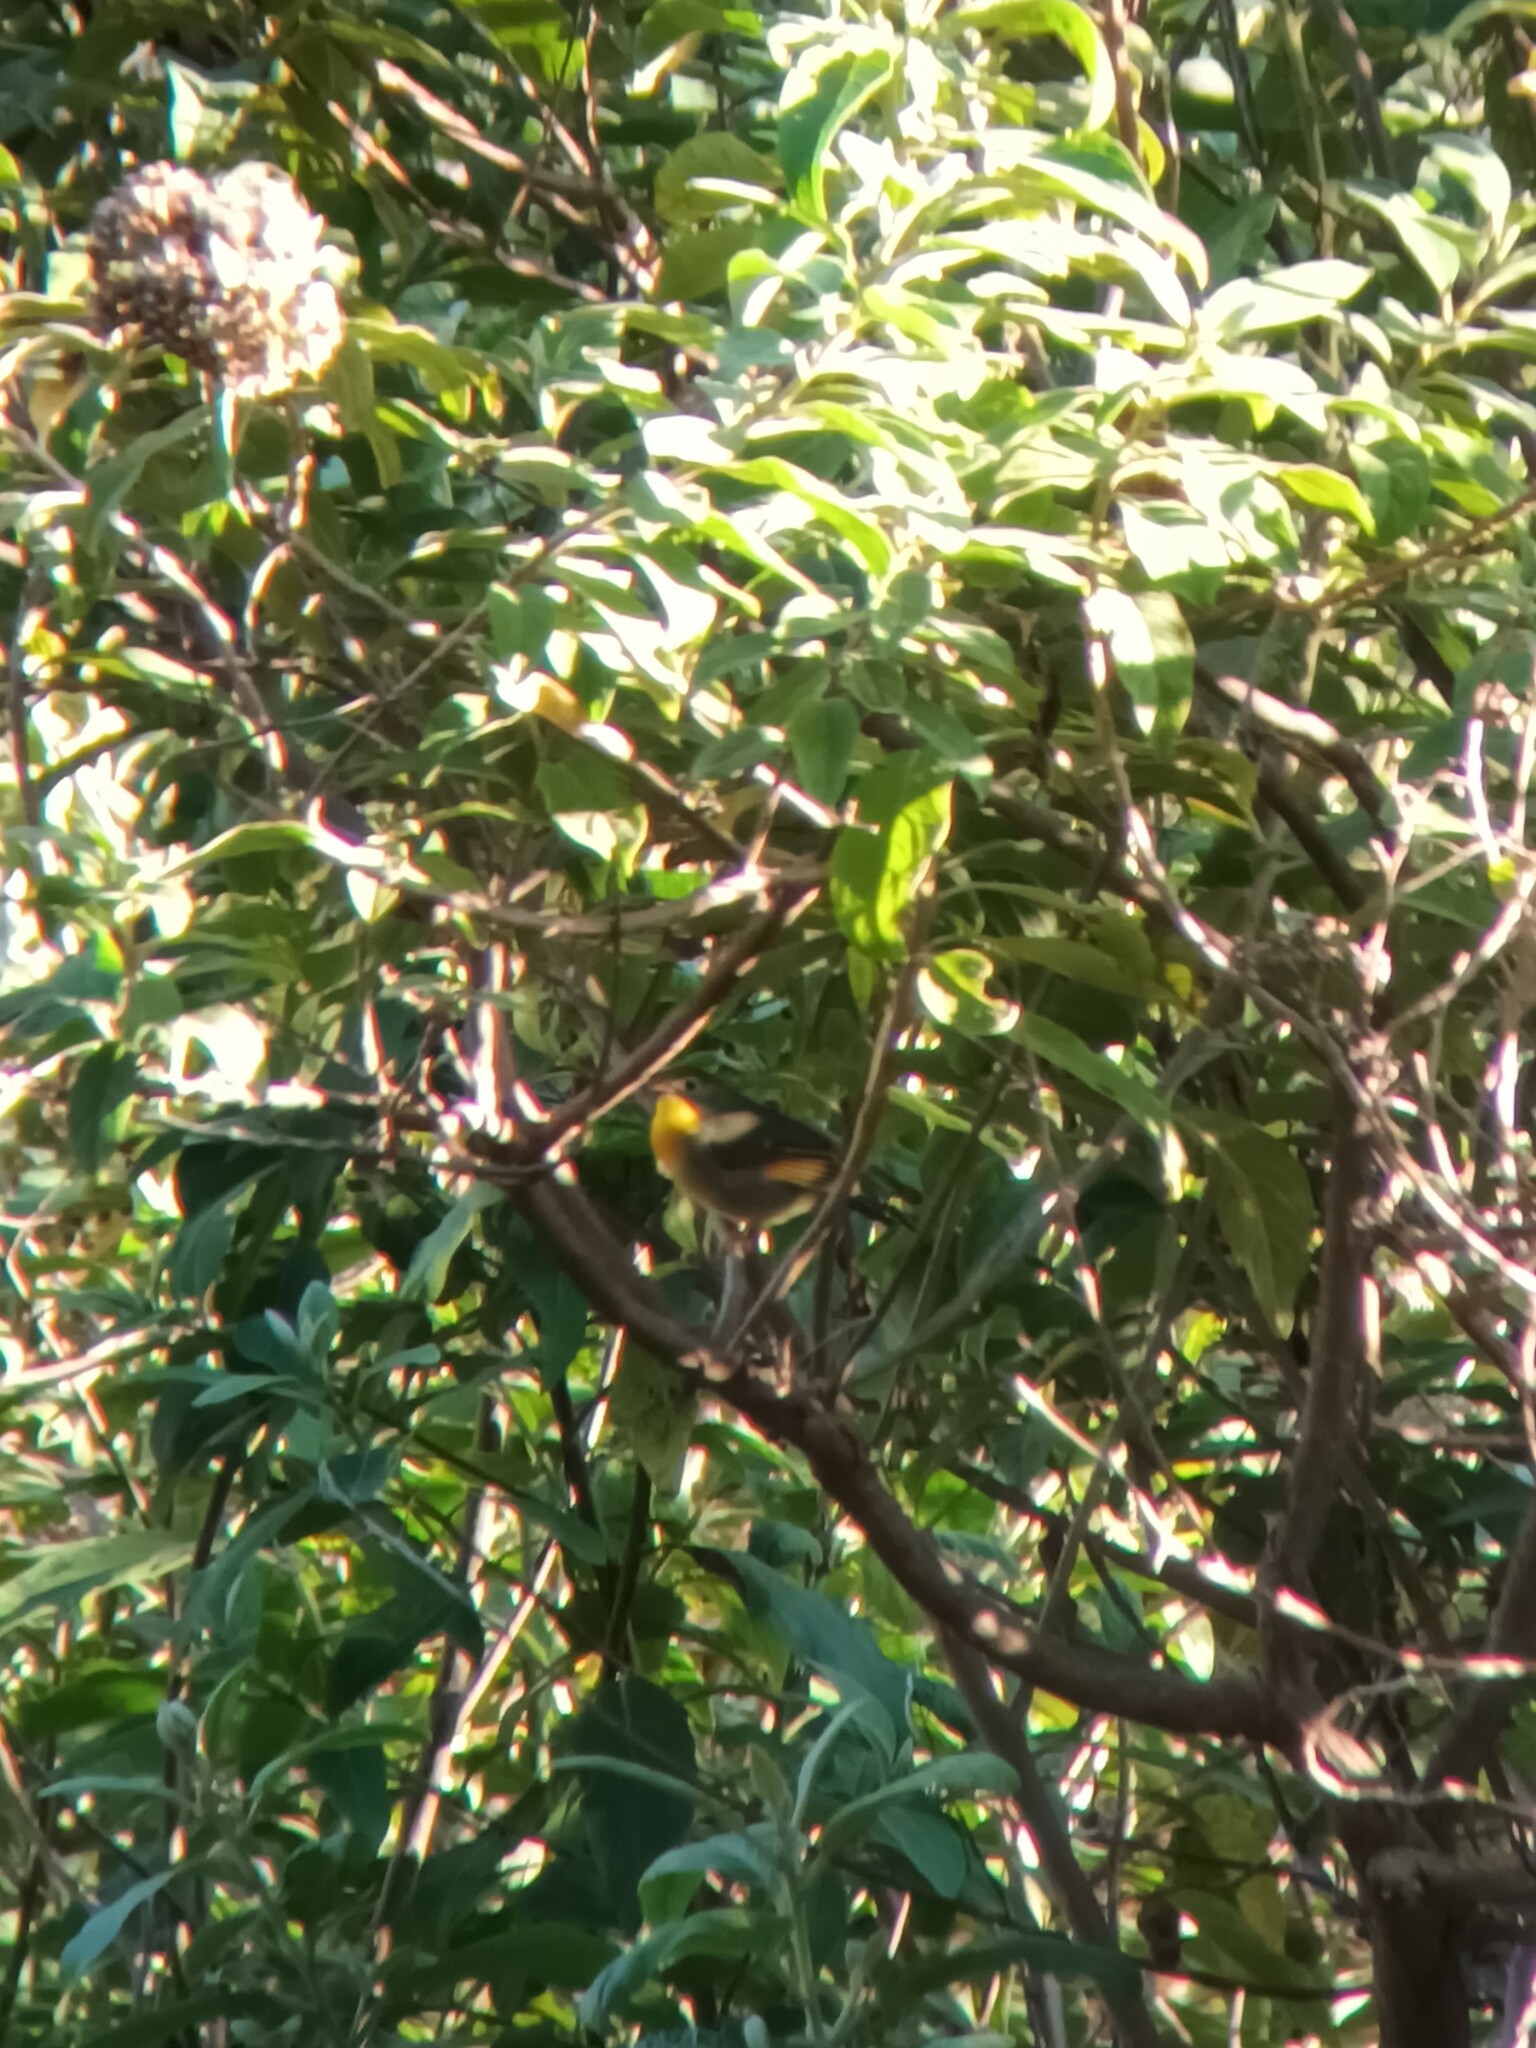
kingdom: Animalia
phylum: Chordata
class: Aves
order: Passeriformes
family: Leiothrichidae
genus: Leiothrix
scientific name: Leiothrix lutea
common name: Red-billed leiothrix
